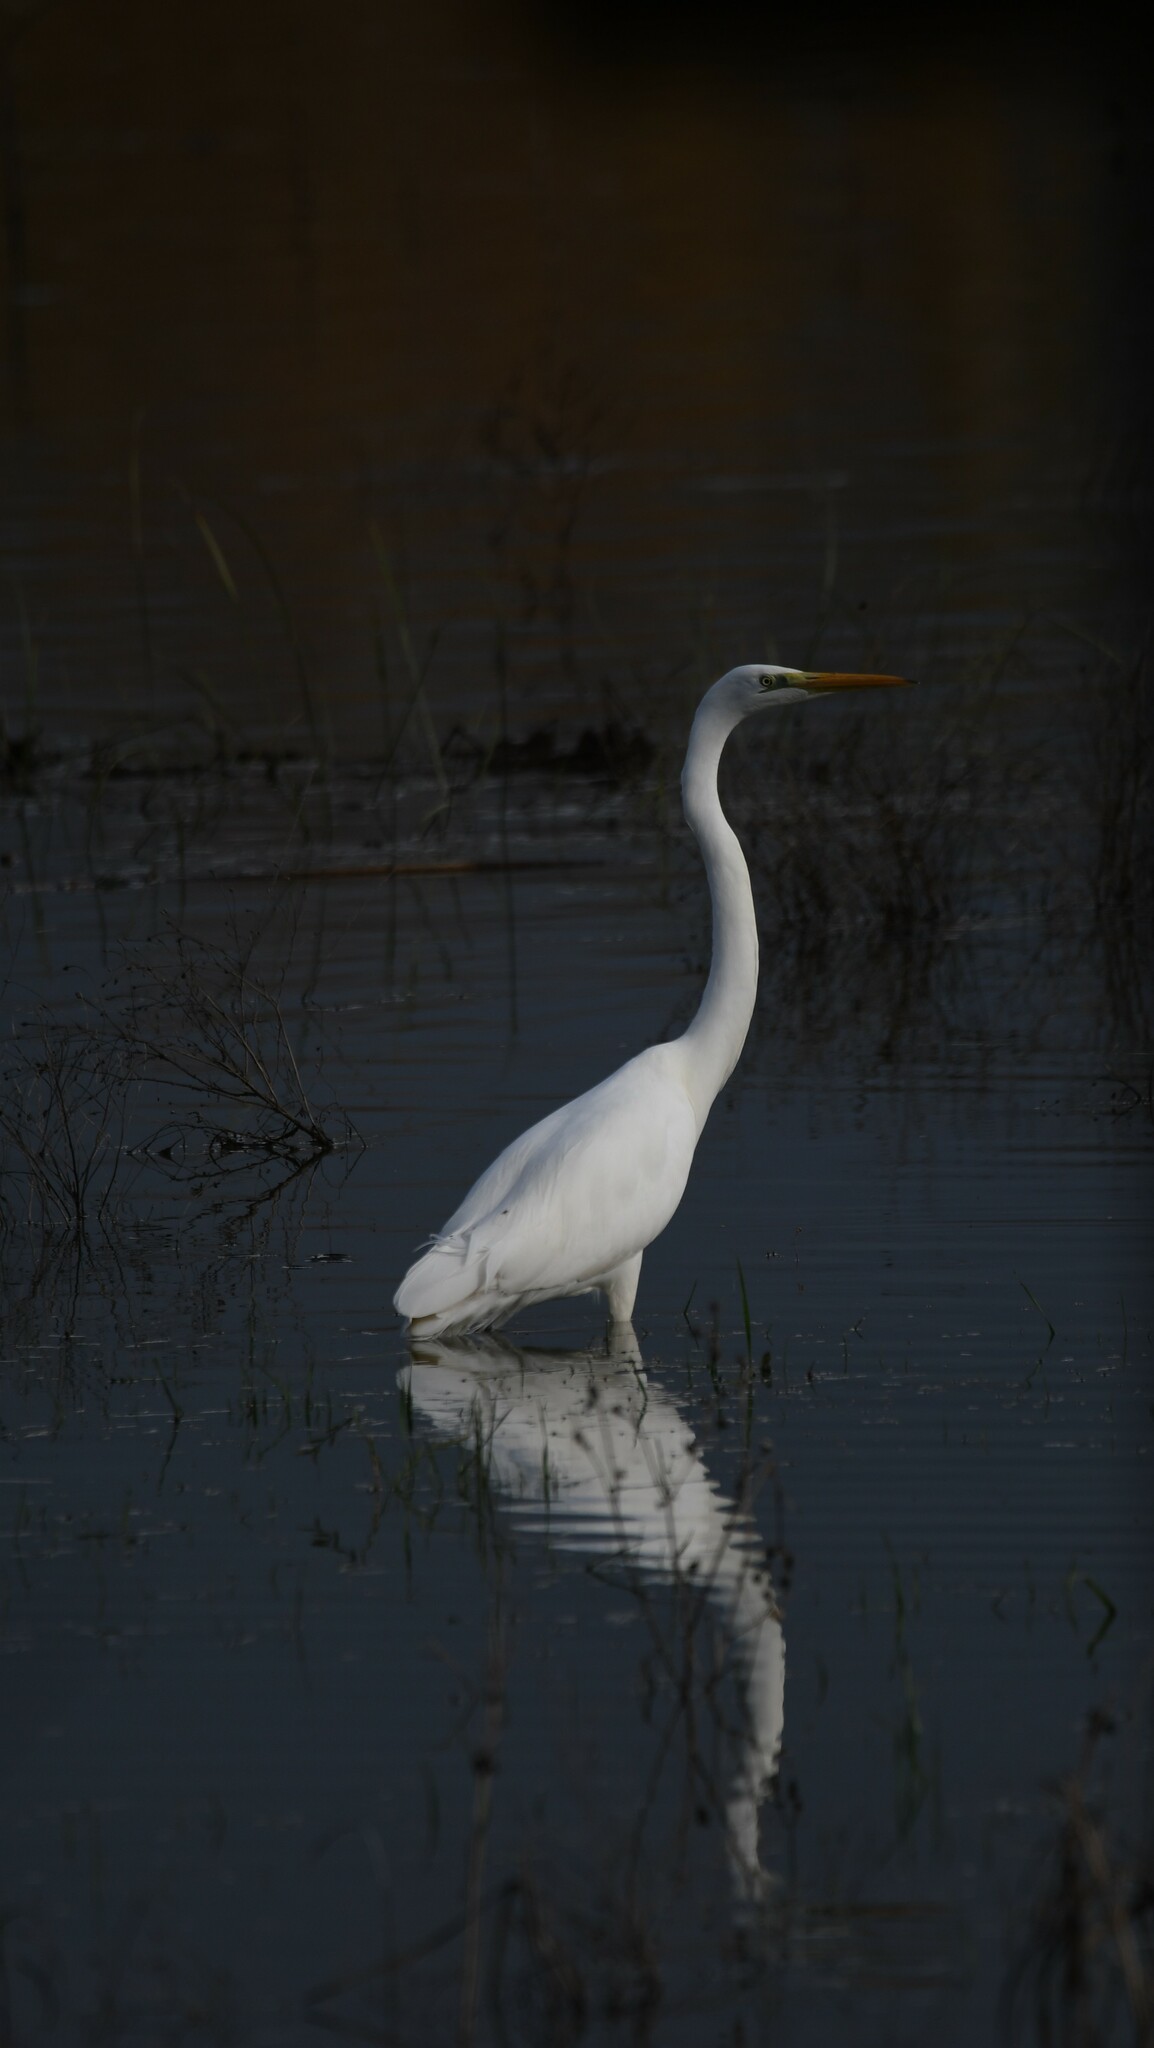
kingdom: Animalia
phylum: Chordata
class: Aves
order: Pelecaniformes
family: Ardeidae
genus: Ardea
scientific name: Ardea alba
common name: Great egret
